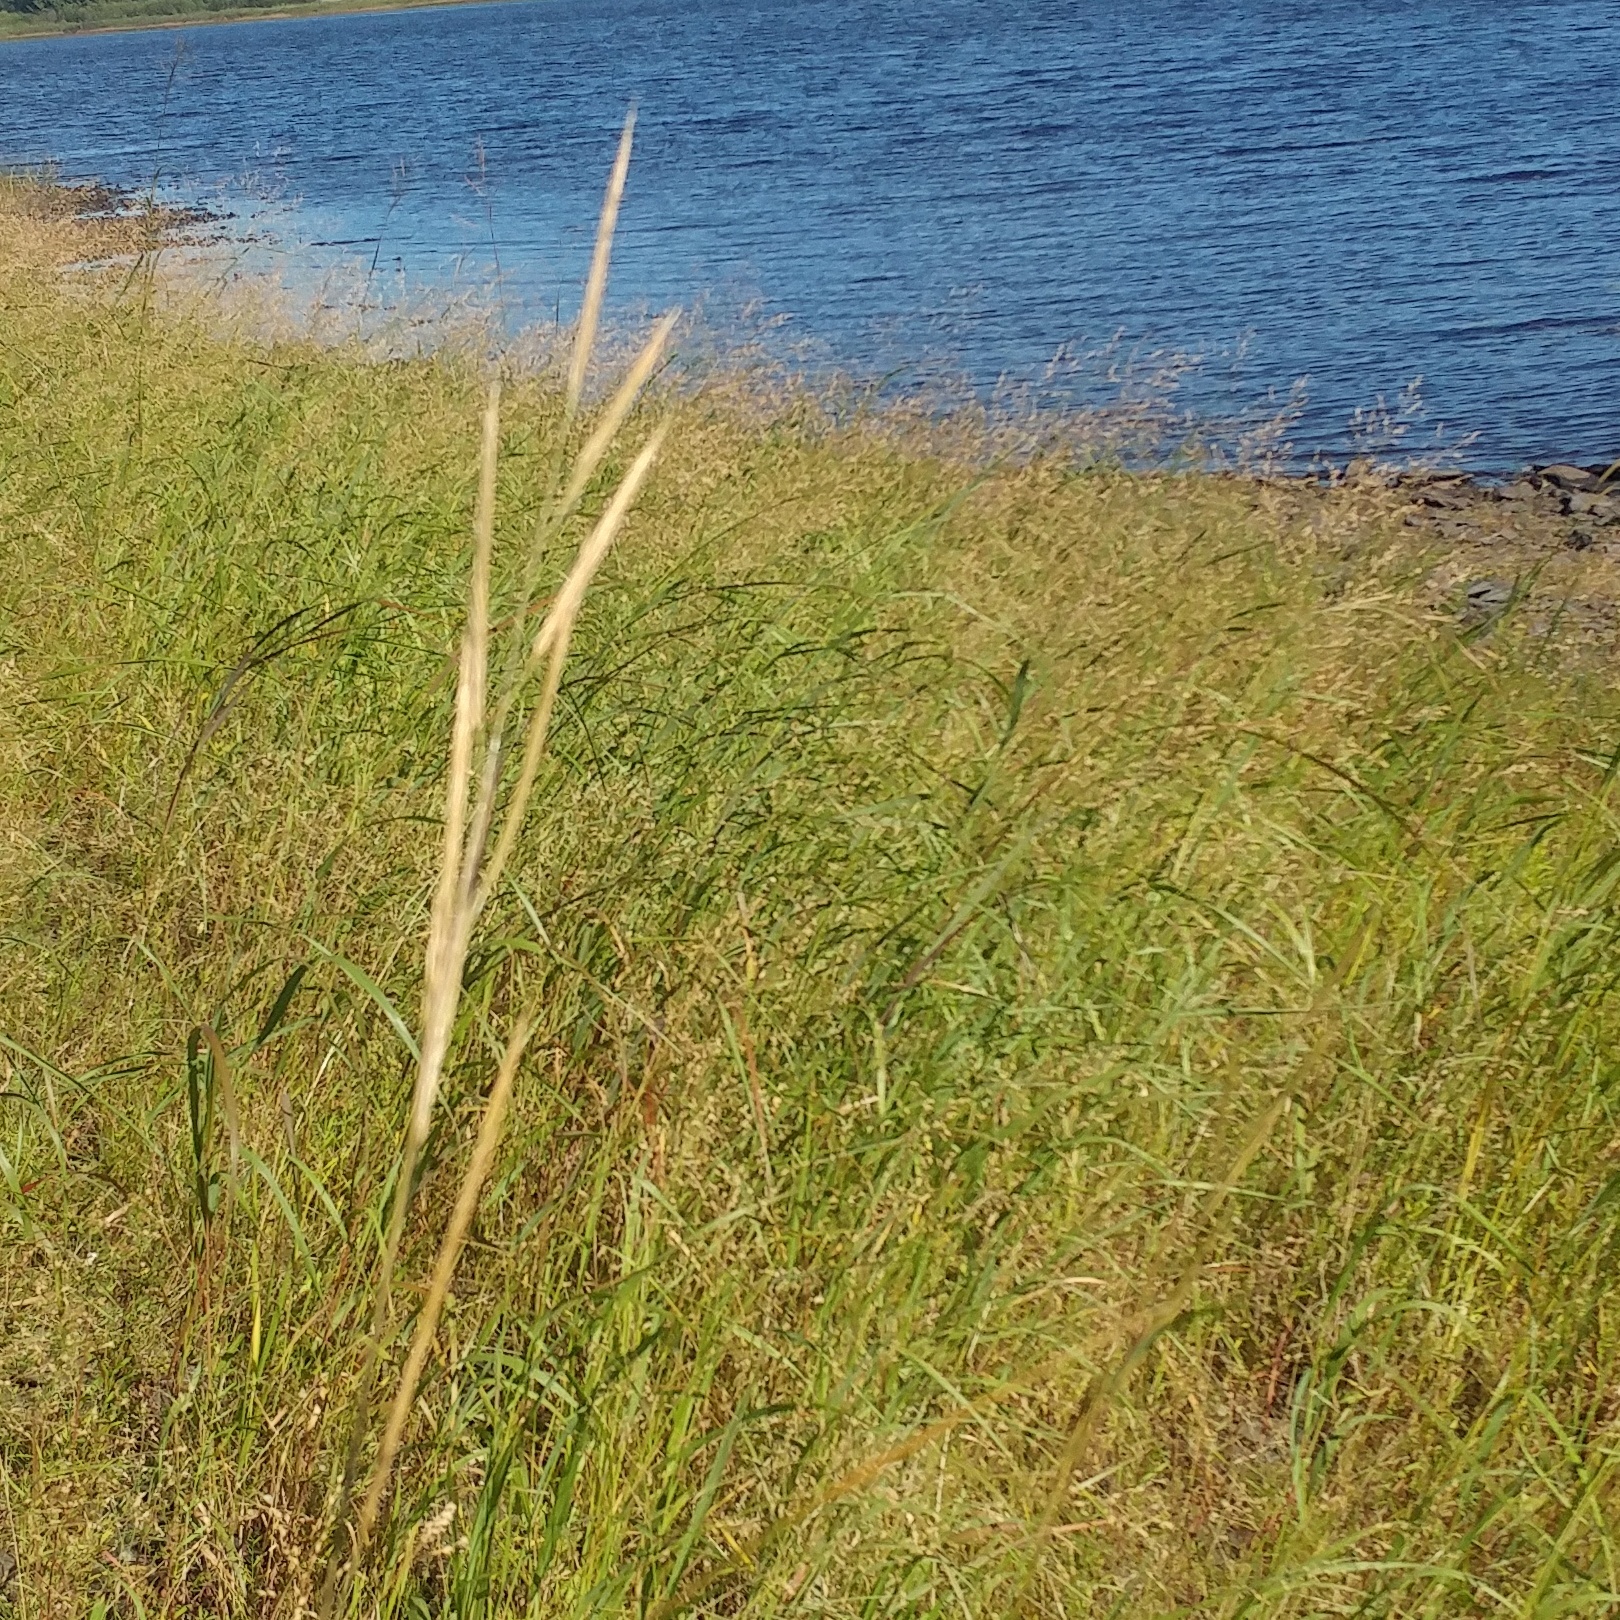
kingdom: Plantae
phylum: Tracheophyta
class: Liliopsida
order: Poales
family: Poaceae
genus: Sporobolus
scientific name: Sporobolus michauxianus
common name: Freshwater cordgrass
